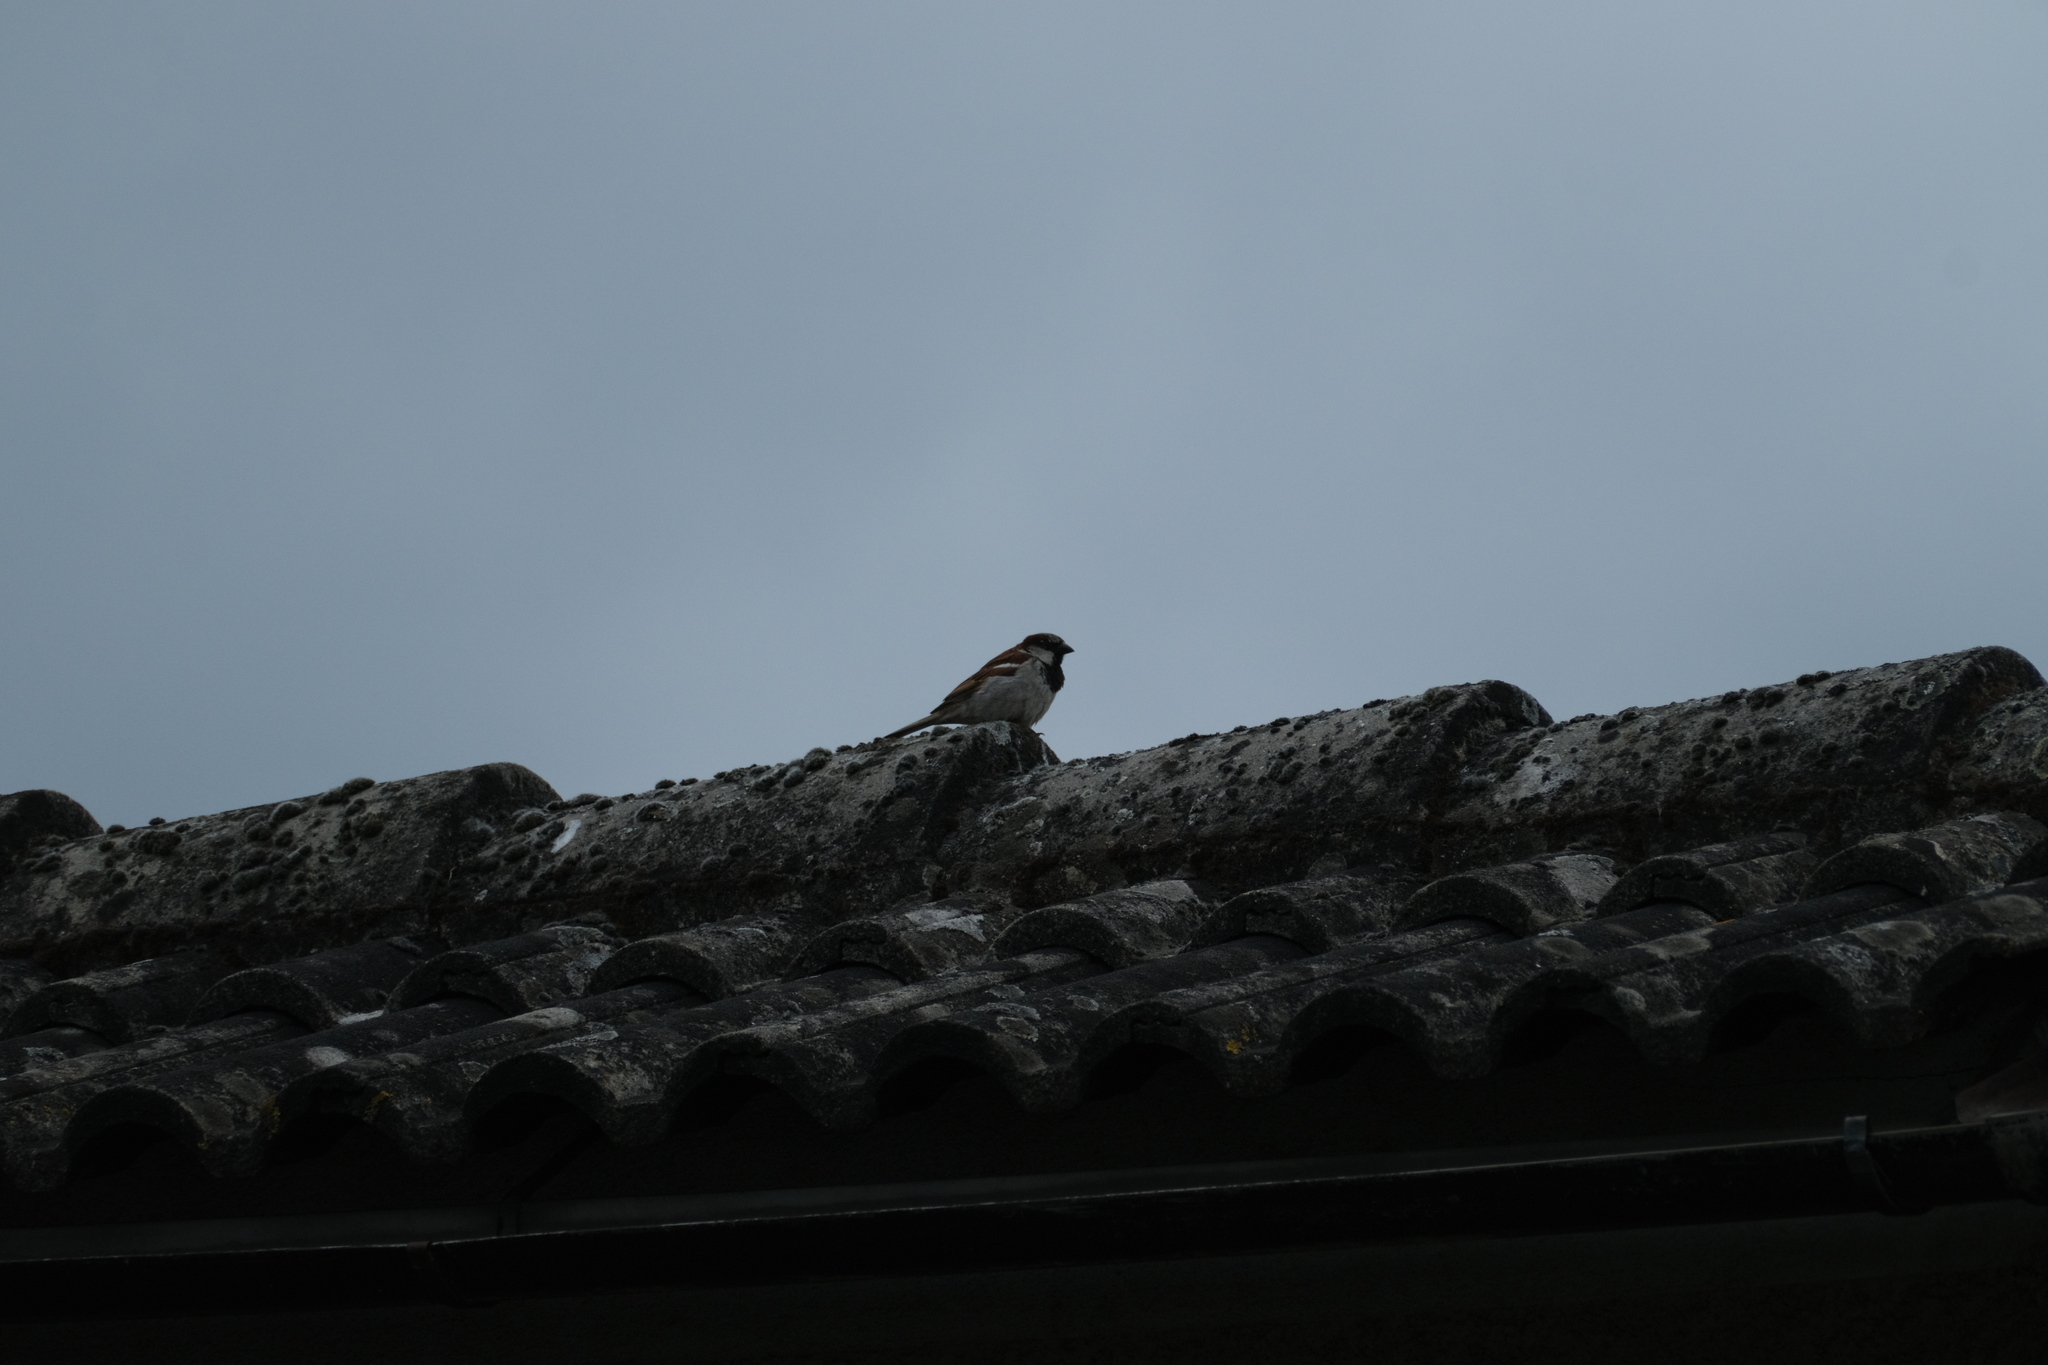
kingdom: Animalia
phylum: Chordata
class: Aves
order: Passeriformes
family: Passeridae
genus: Passer
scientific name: Passer domesticus
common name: House sparrow
